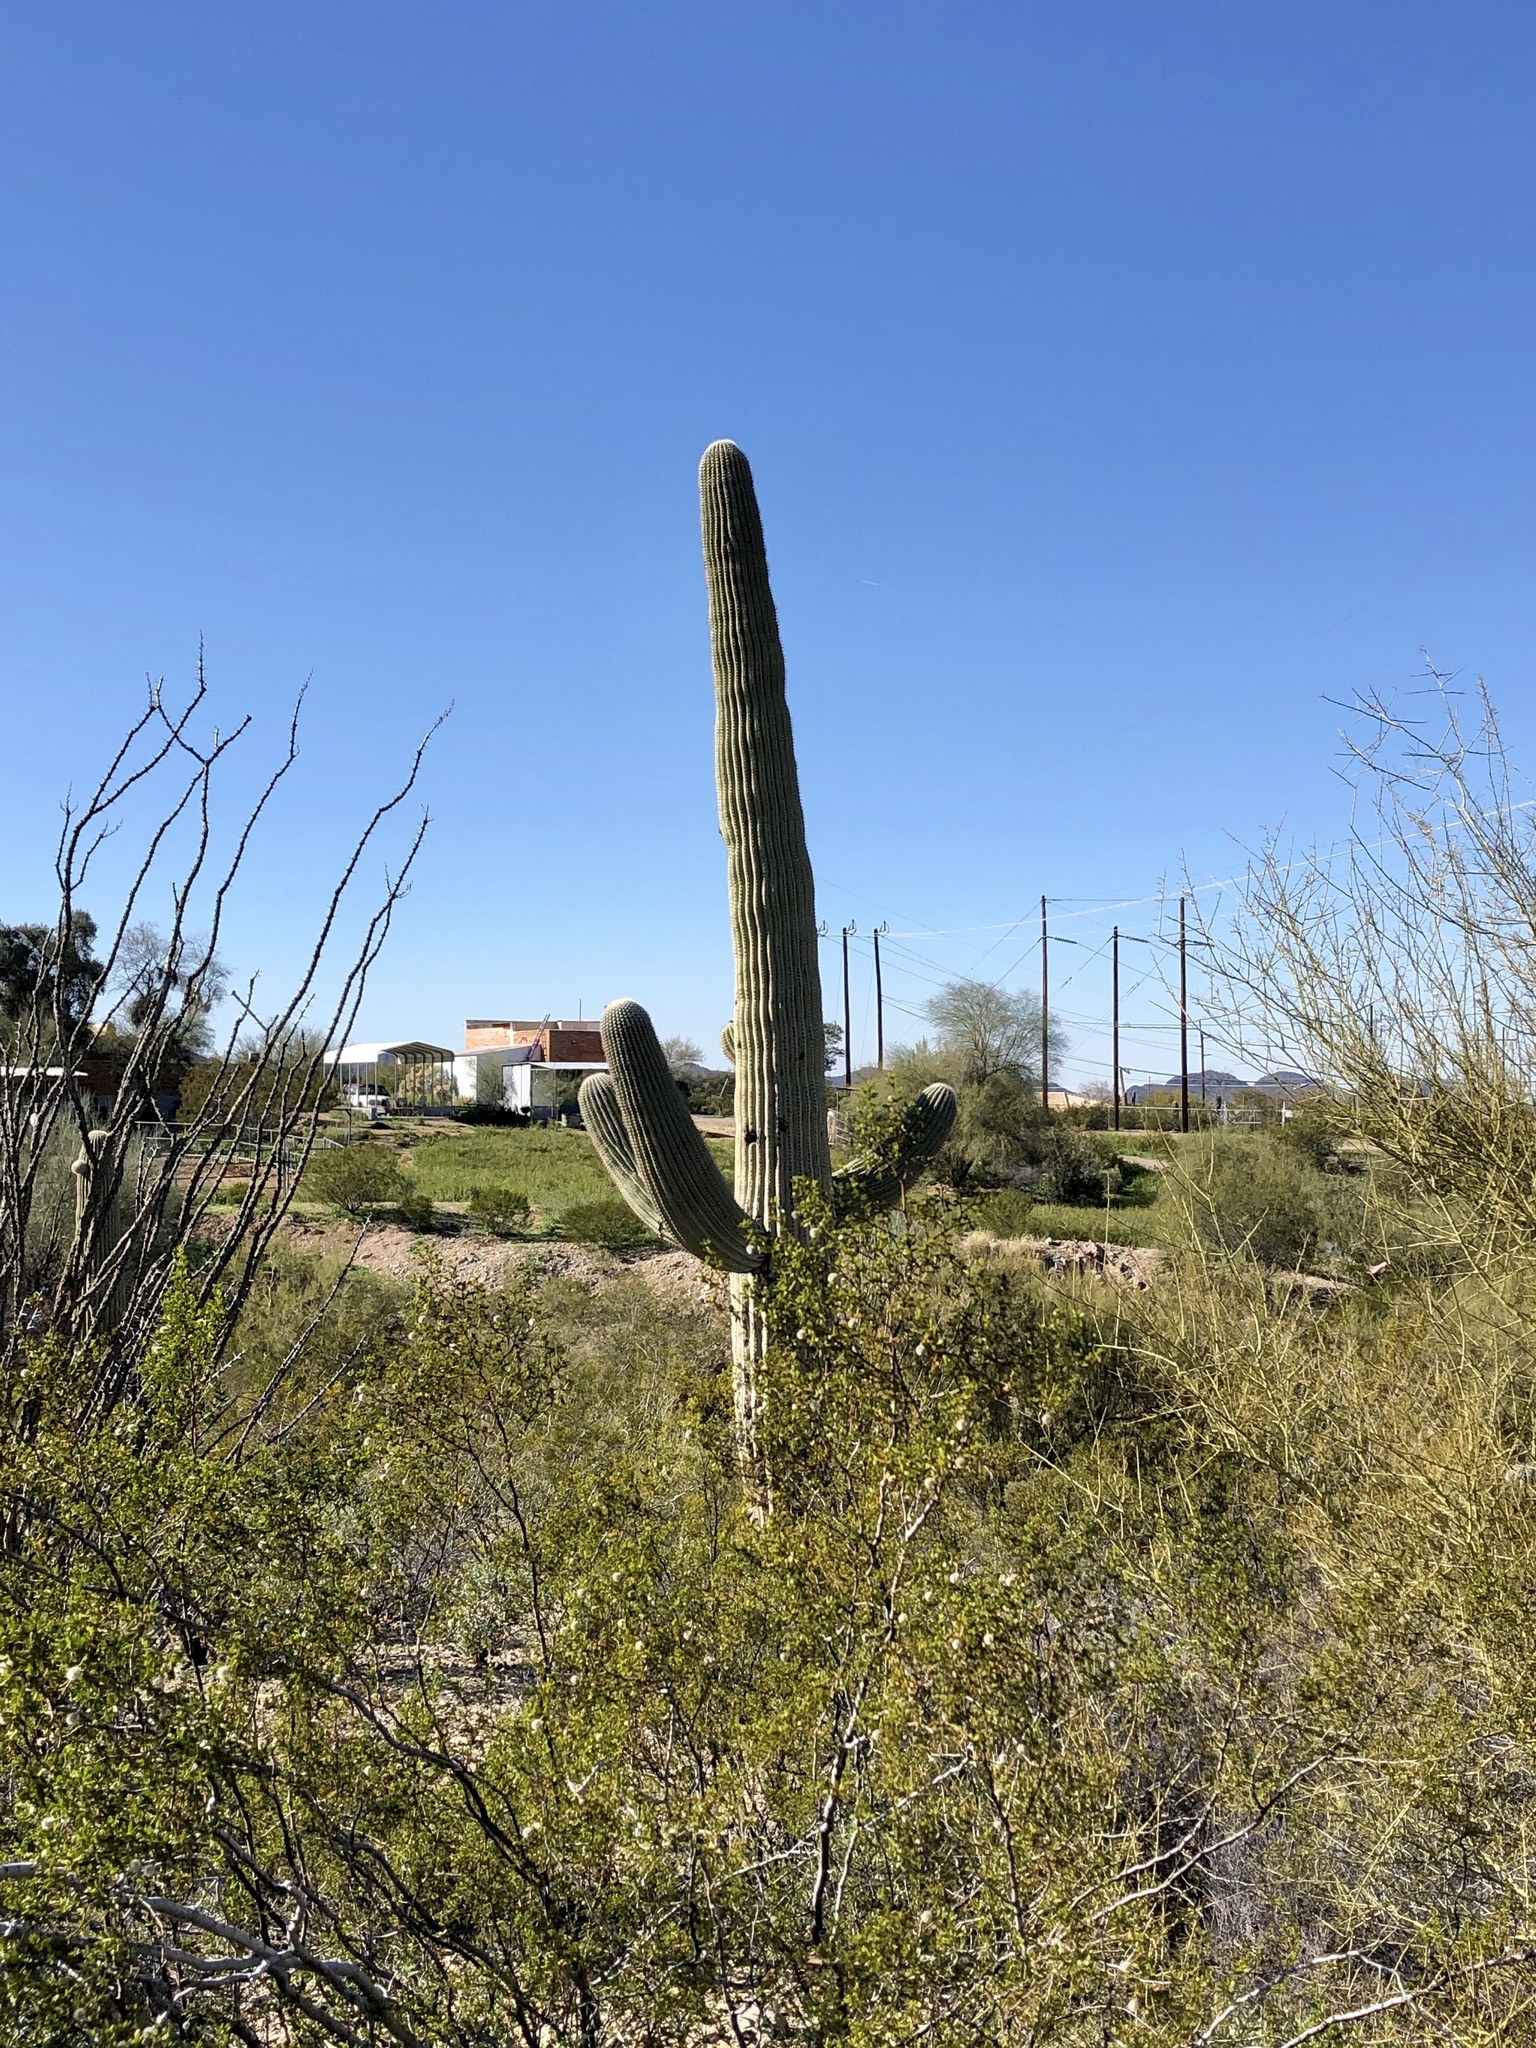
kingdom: Plantae
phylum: Tracheophyta
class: Magnoliopsida
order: Caryophyllales
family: Cactaceae
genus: Carnegiea
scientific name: Carnegiea gigantea
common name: Saguaro
